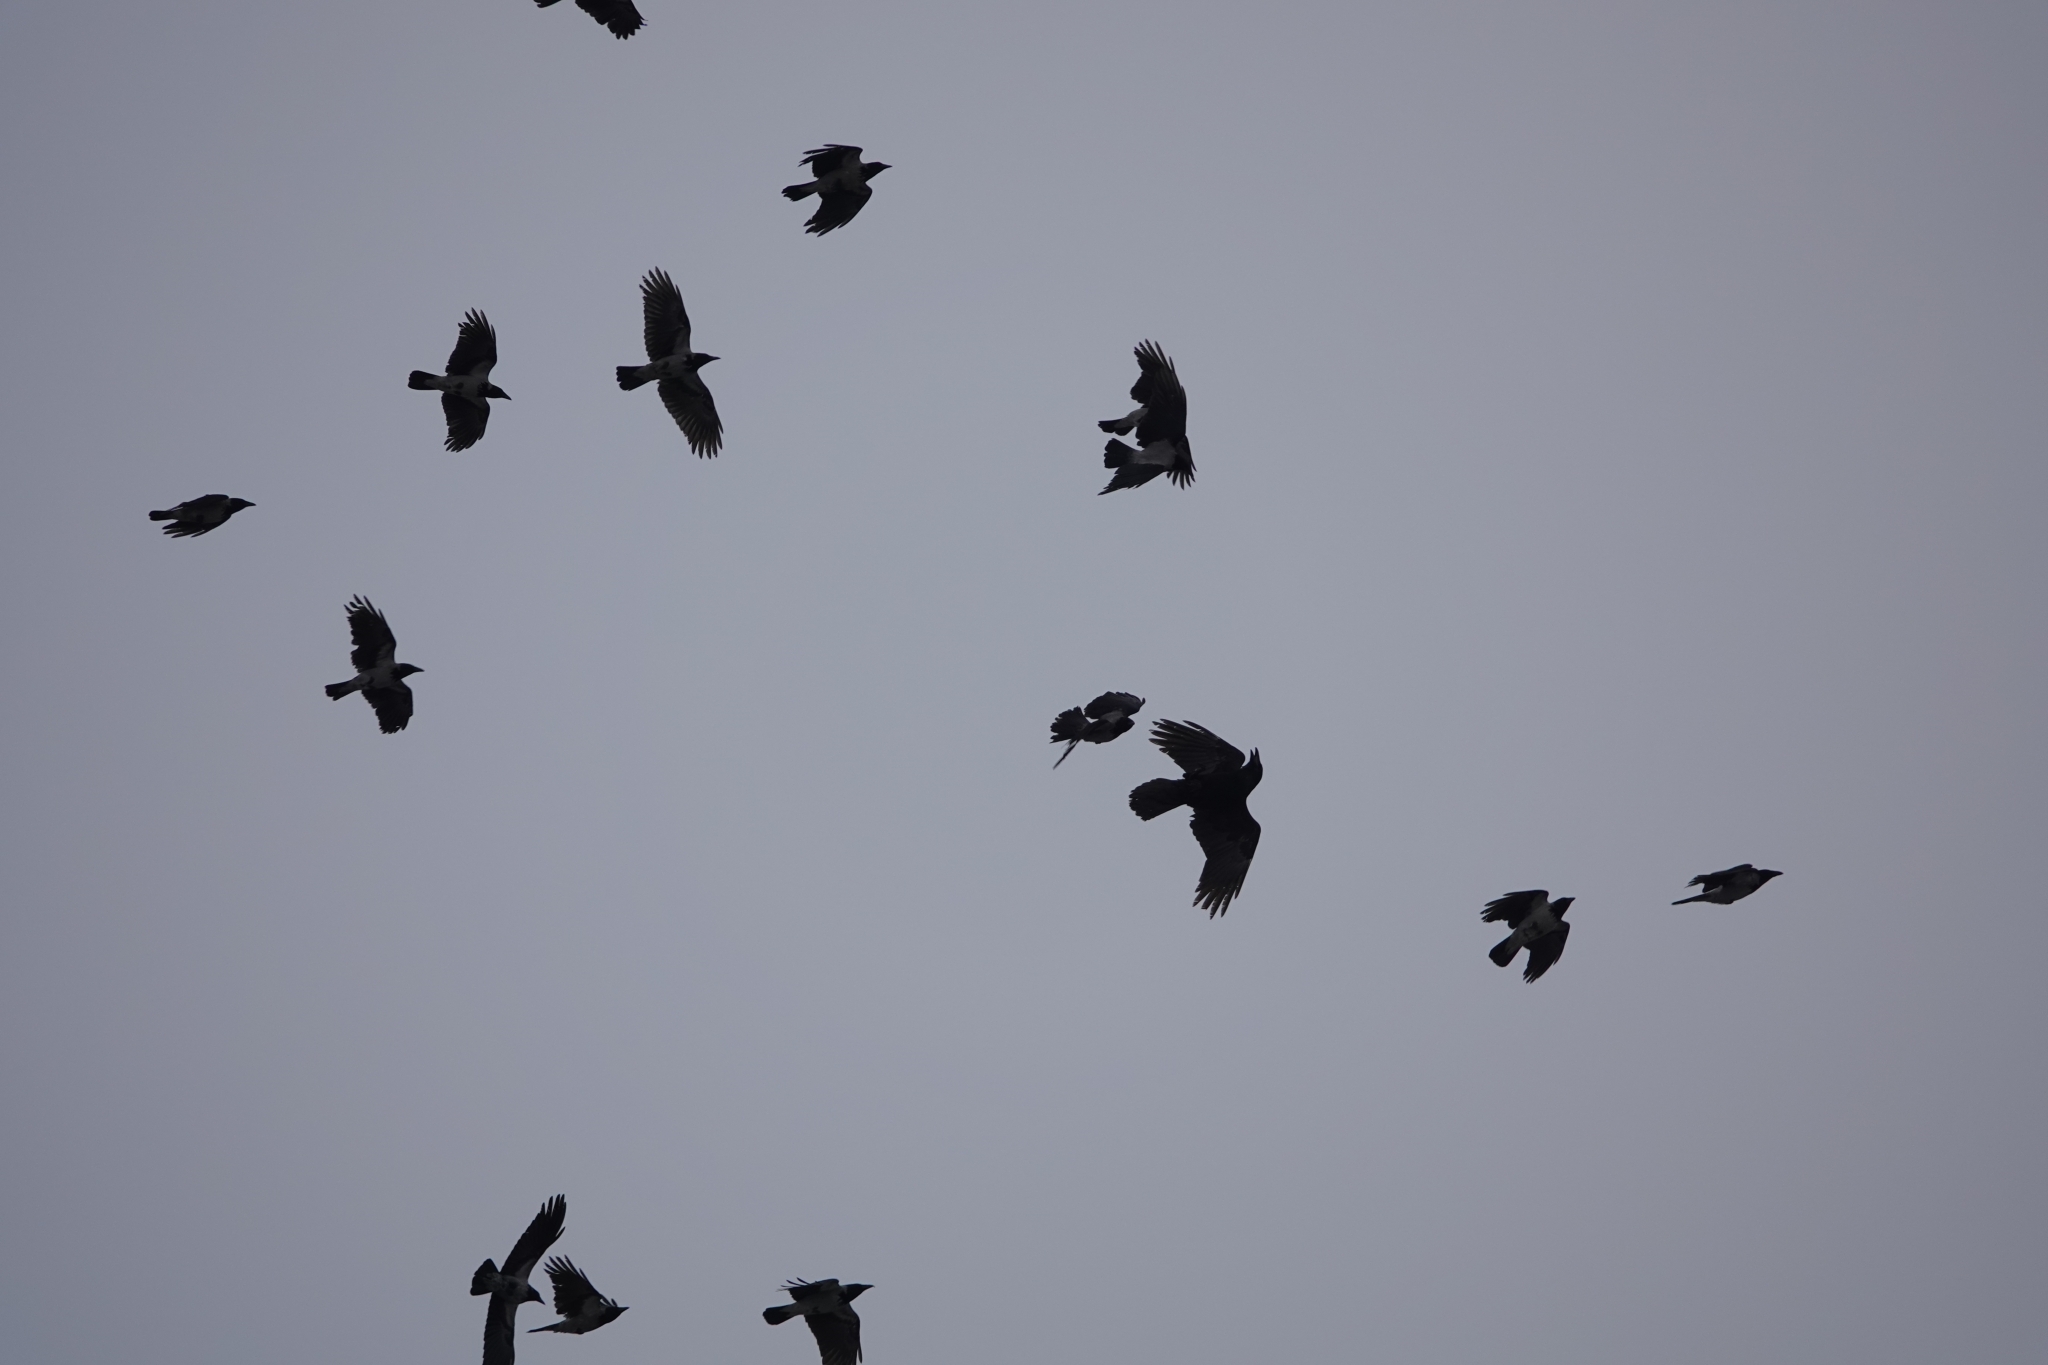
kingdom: Animalia
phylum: Chordata
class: Aves
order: Passeriformes
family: Corvidae
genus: Corvus
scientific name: Corvus corax
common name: Common raven
